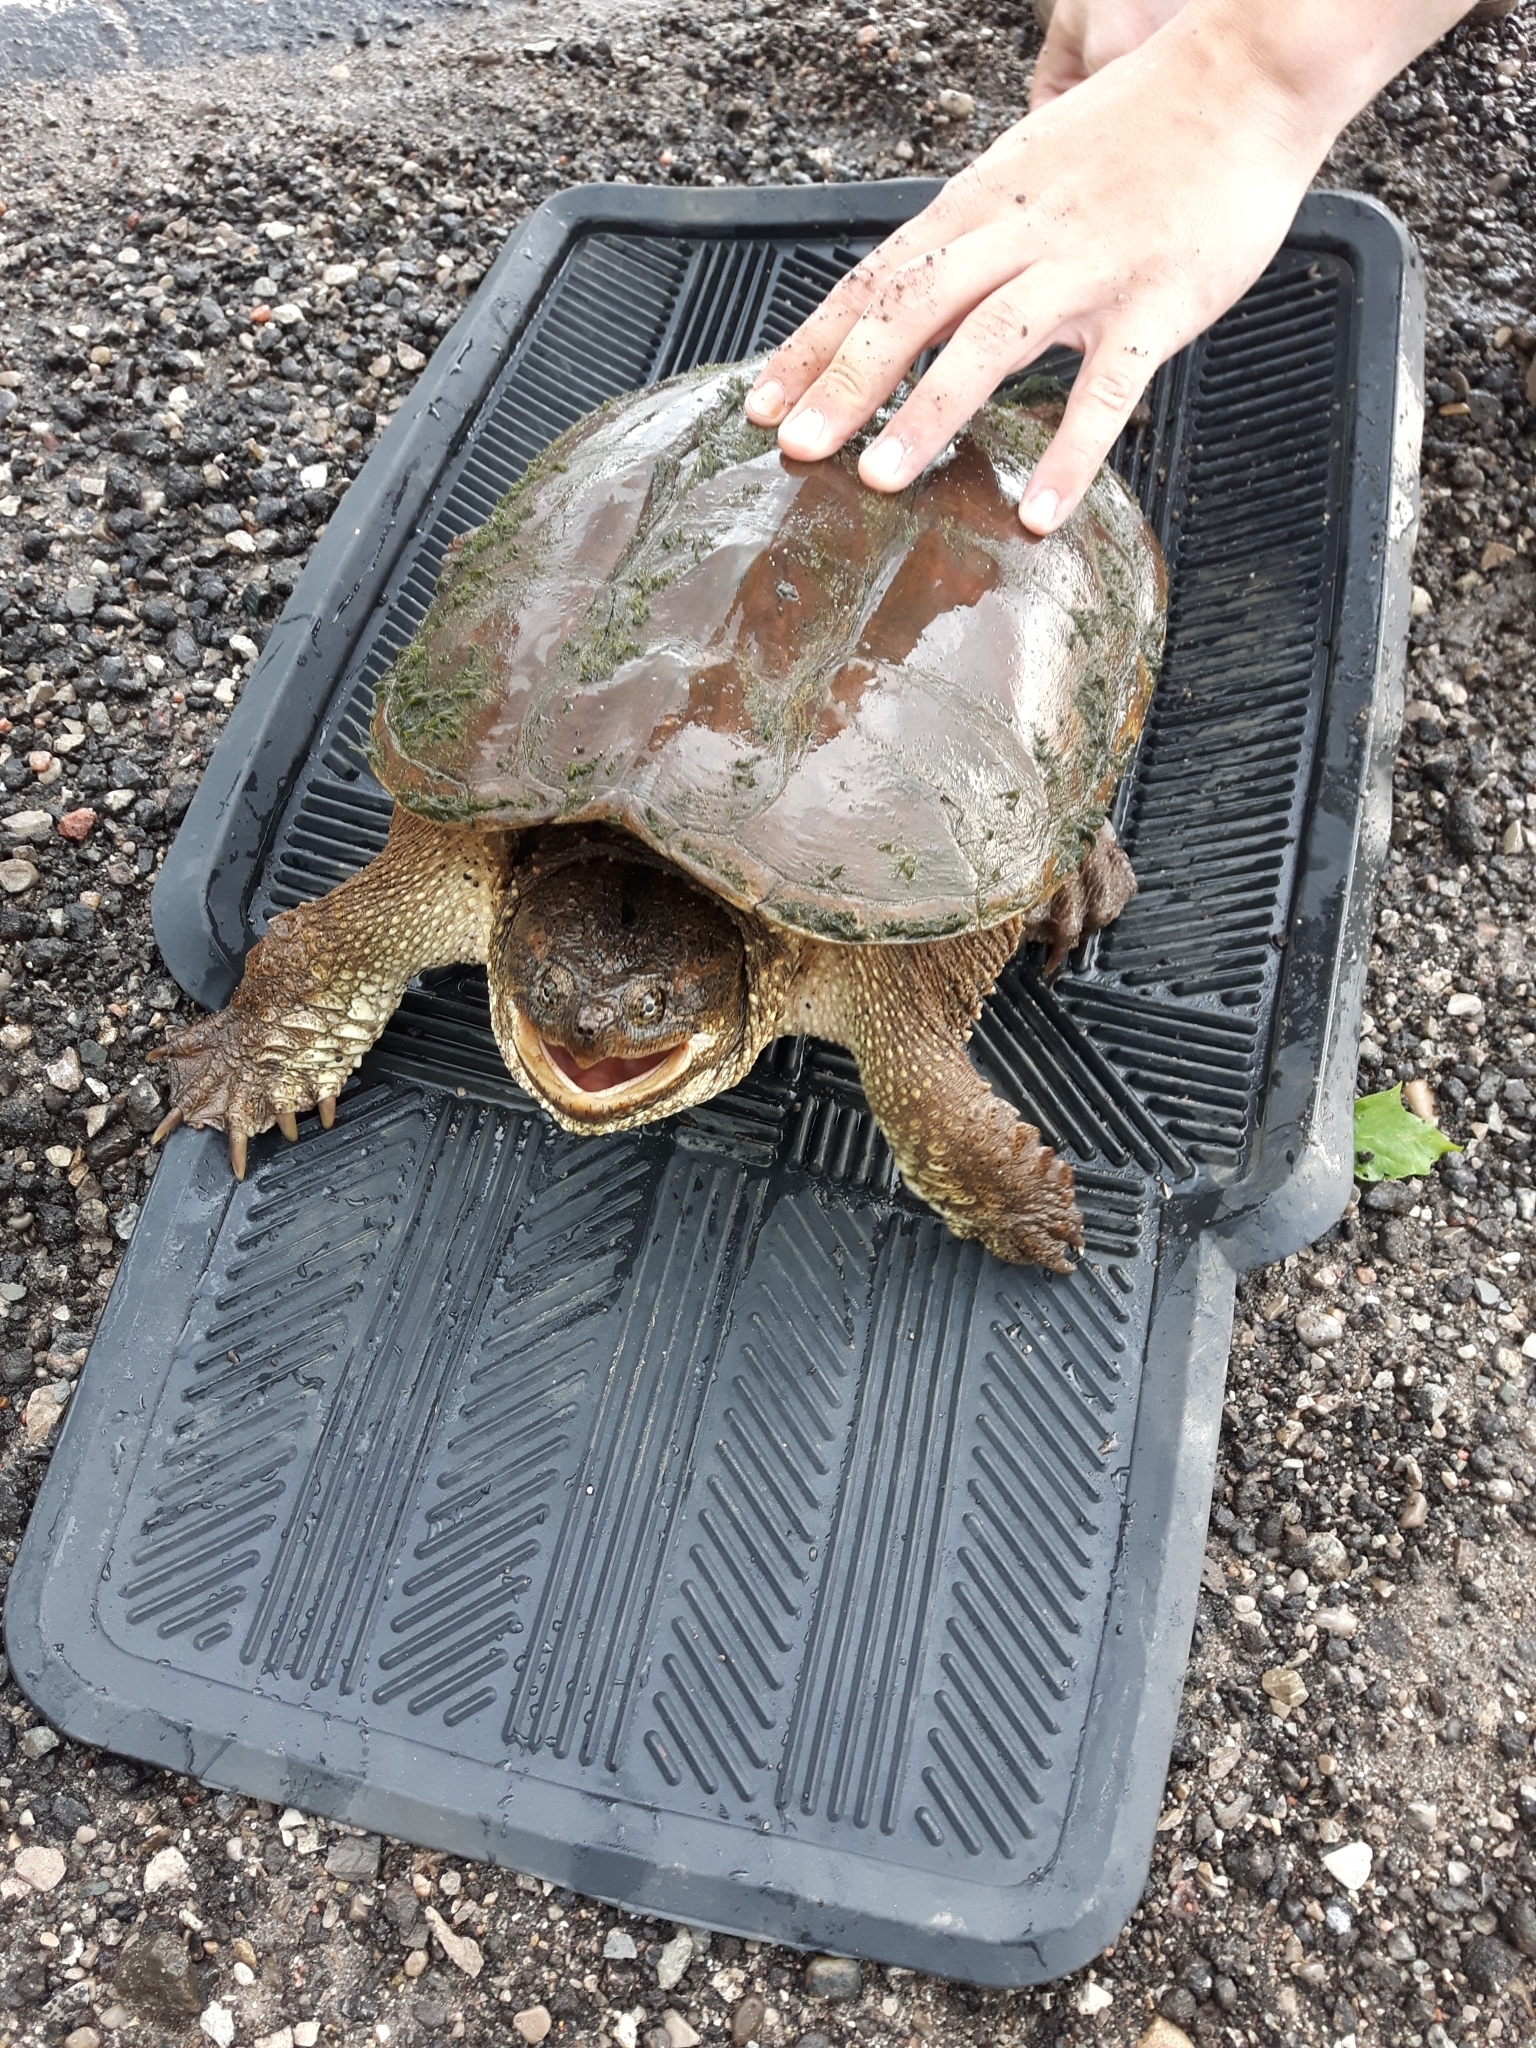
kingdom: Animalia
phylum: Chordata
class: Testudines
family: Chelydridae
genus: Chelydra
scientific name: Chelydra serpentina
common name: Common snapping turtle
